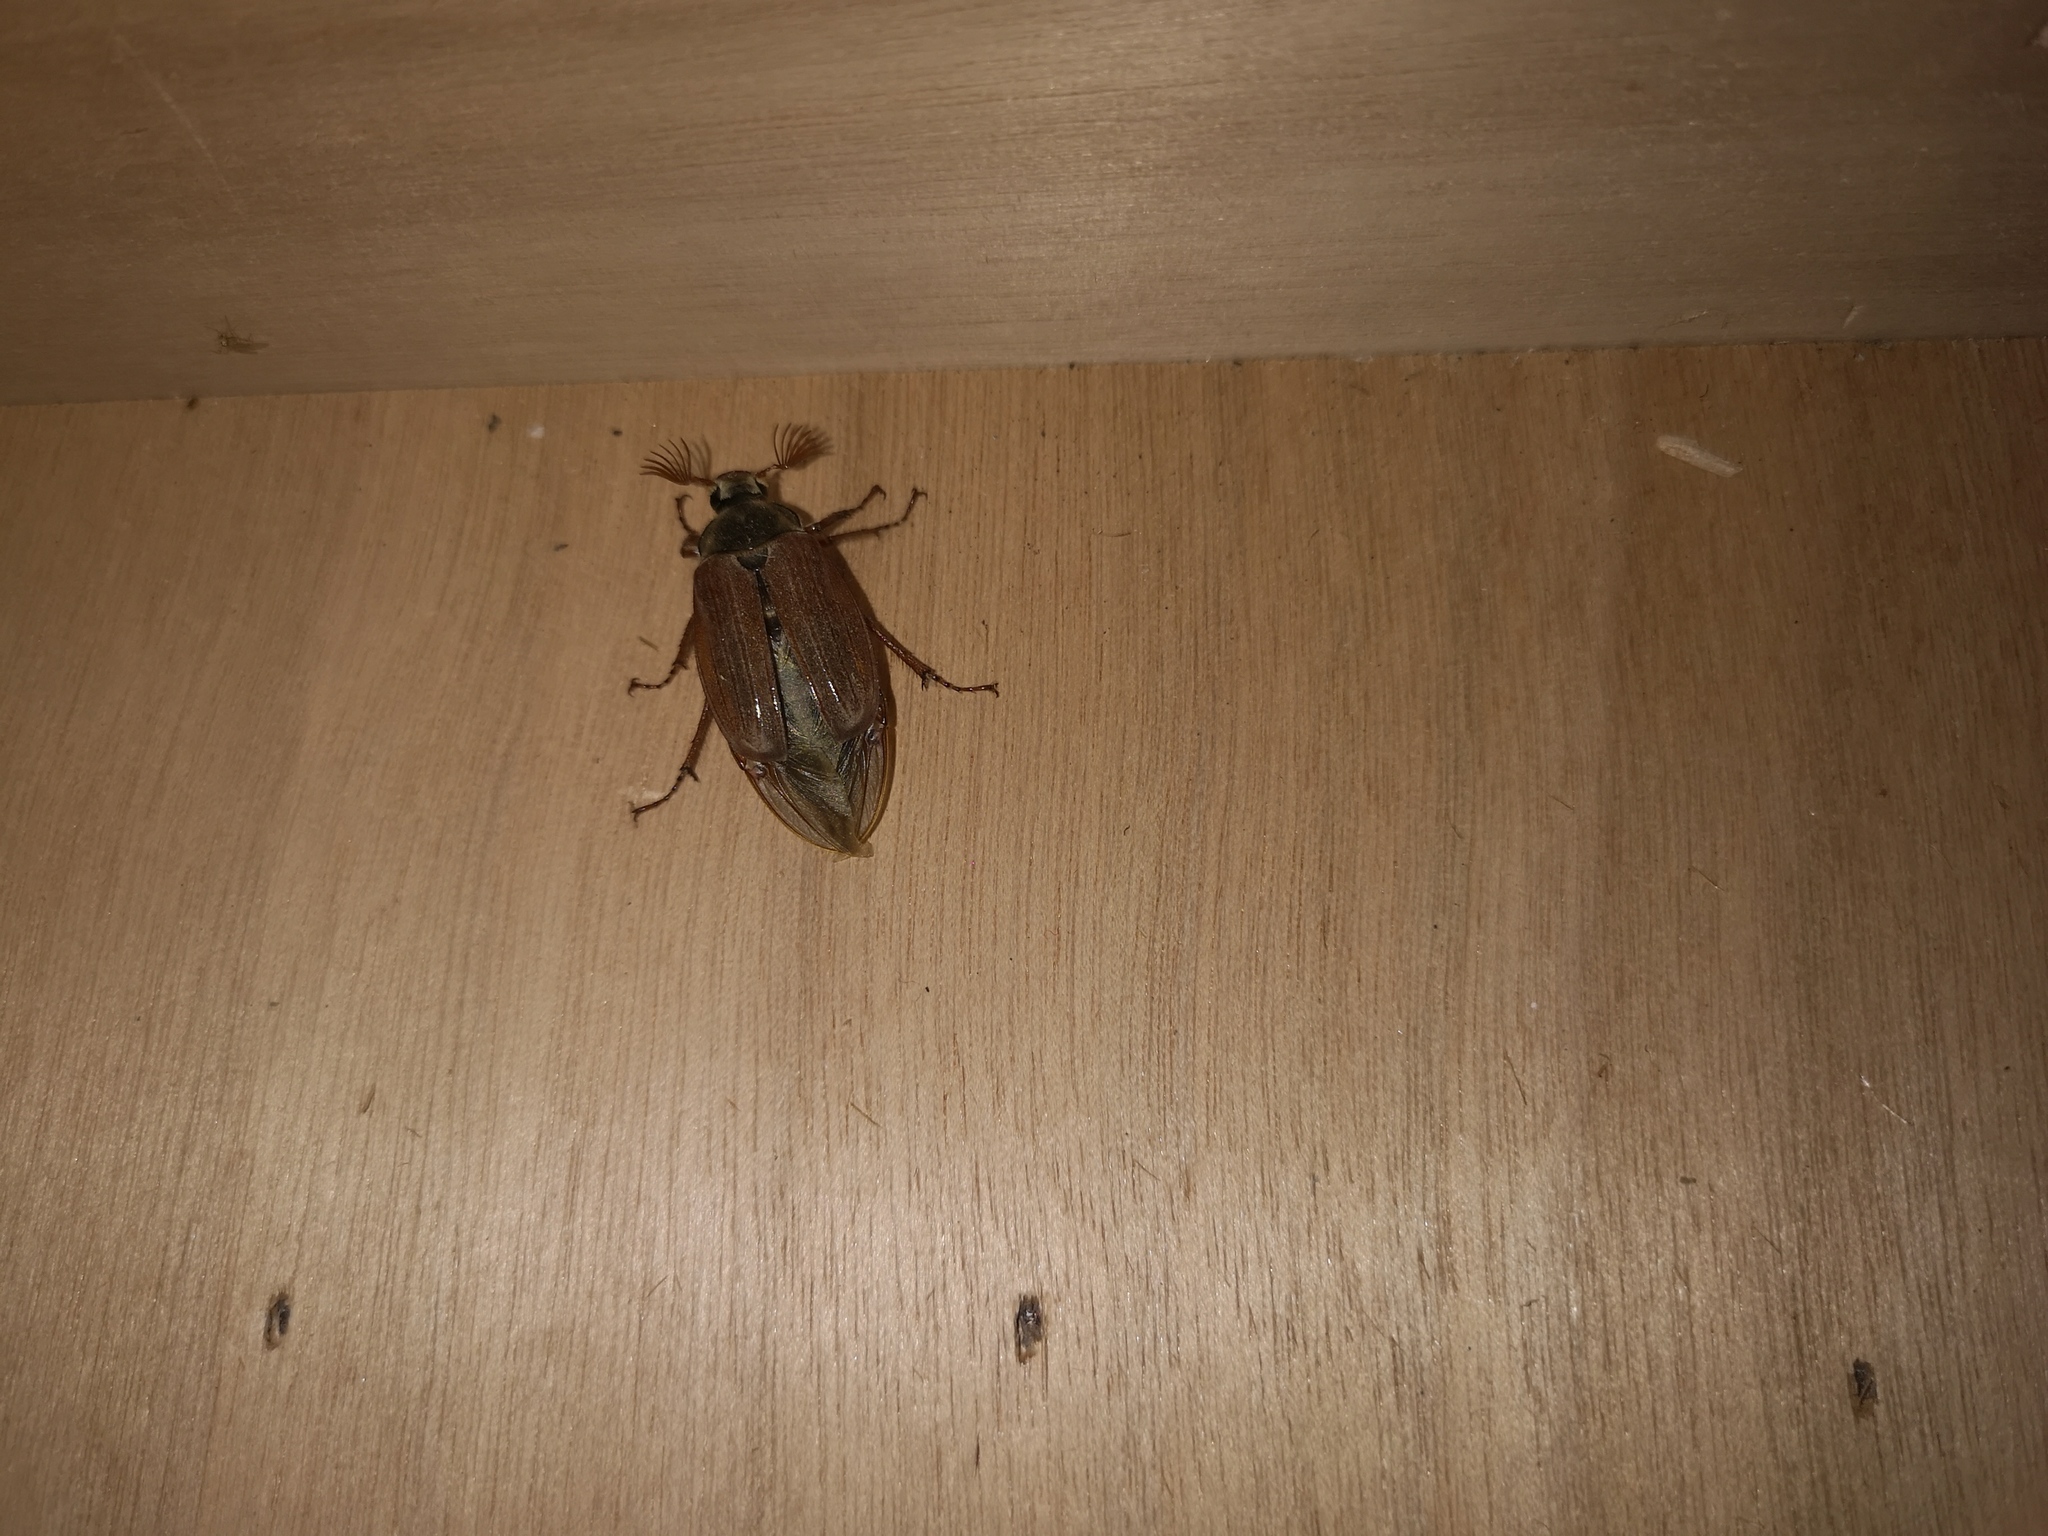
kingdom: Animalia
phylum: Arthropoda
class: Insecta
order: Coleoptera
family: Scarabaeidae
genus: Melolontha
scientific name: Melolontha melolontha
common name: Cockchafer maybeetle
